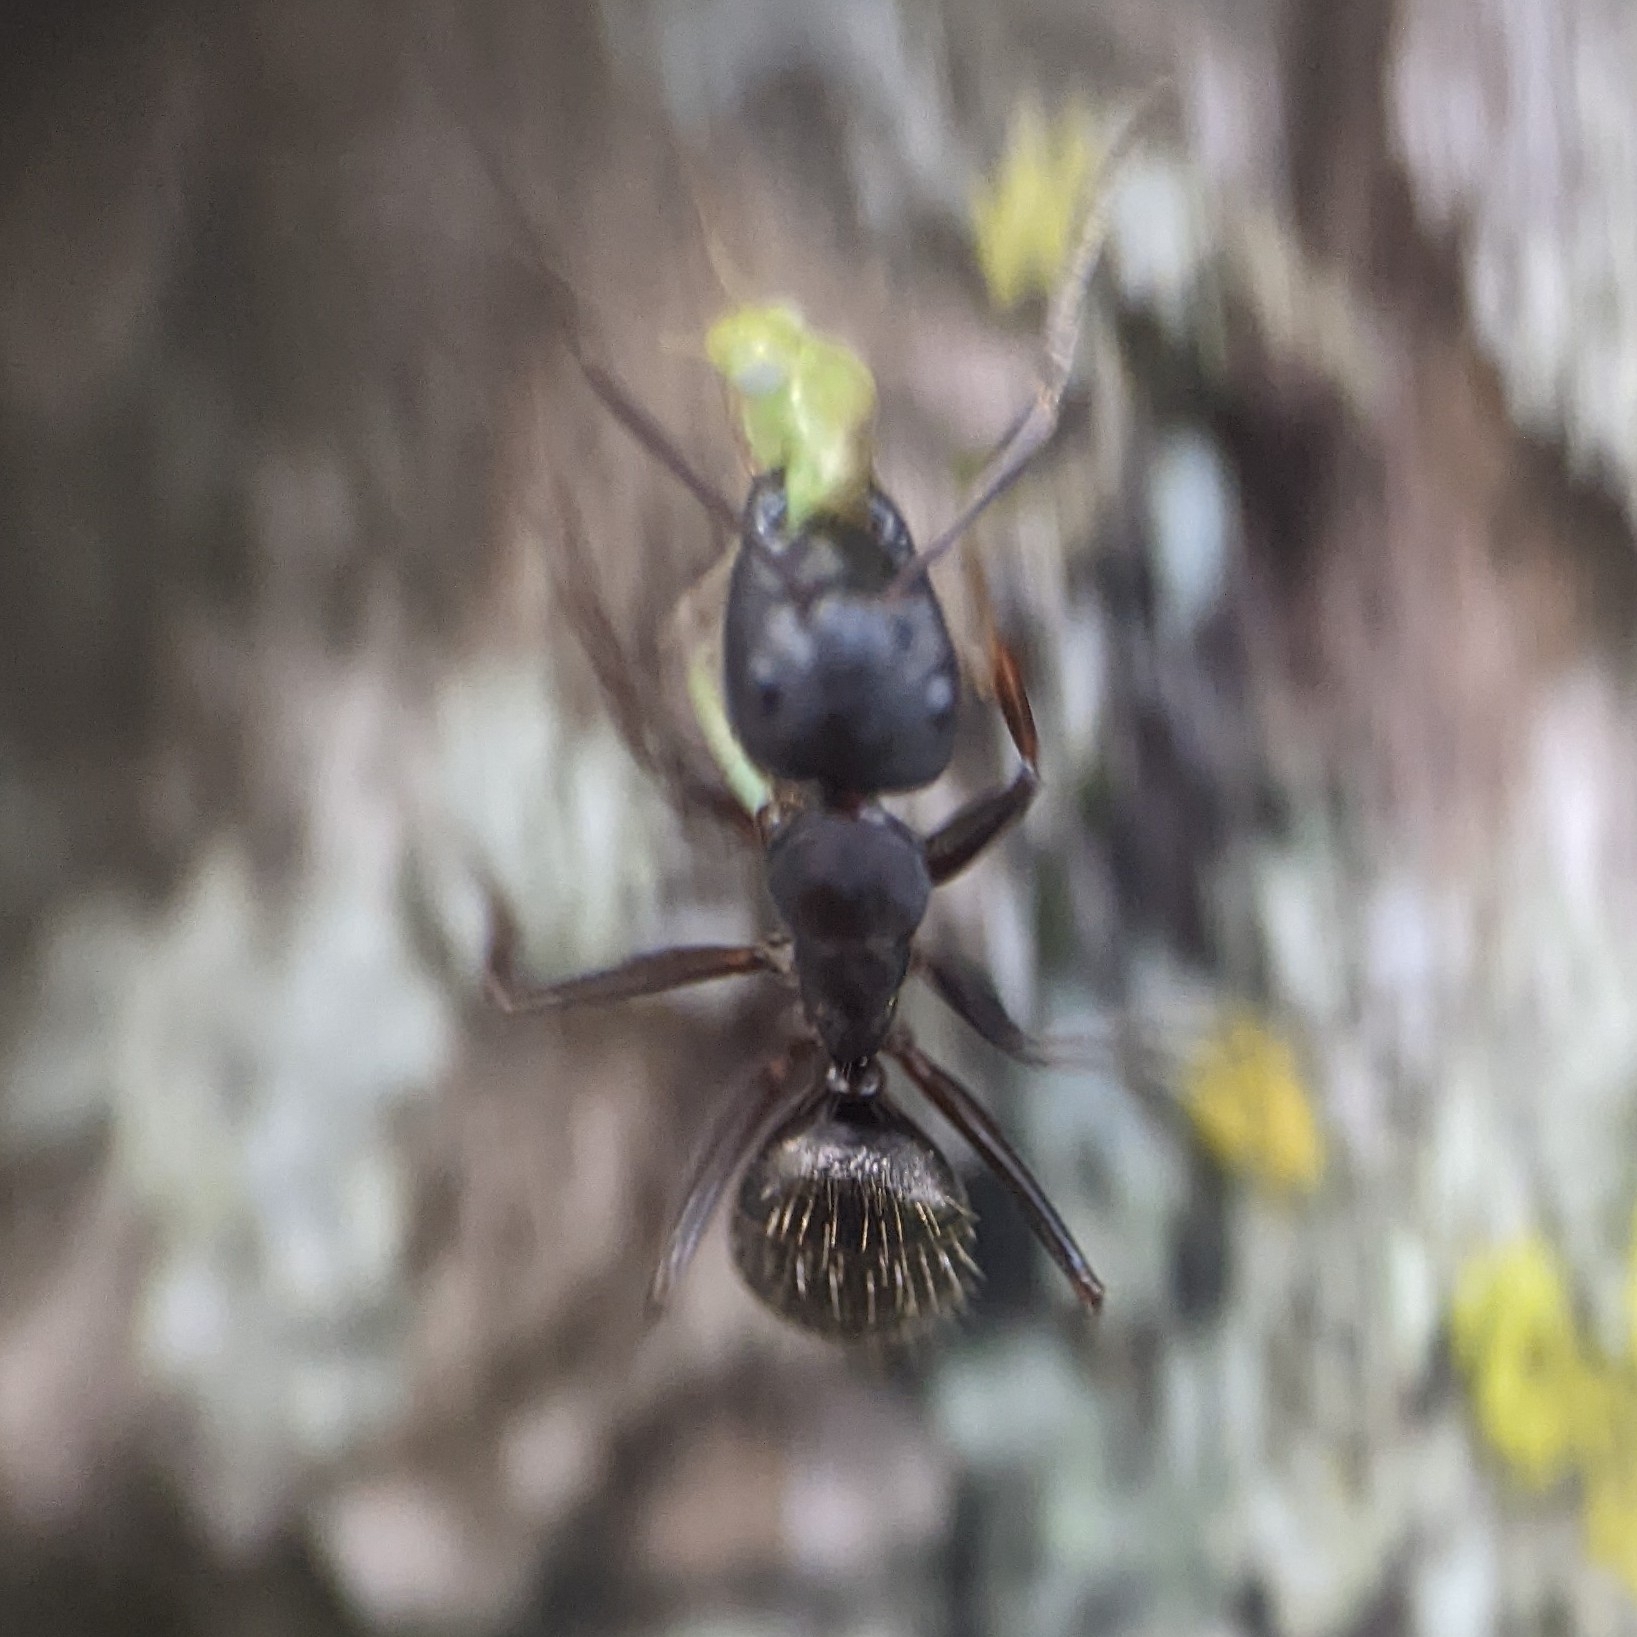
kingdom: Animalia
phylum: Arthropoda
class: Insecta
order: Hymenoptera
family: Formicidae
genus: Camponotus
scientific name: Camponotus pennsylvanicus
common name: Black carpenter ant
